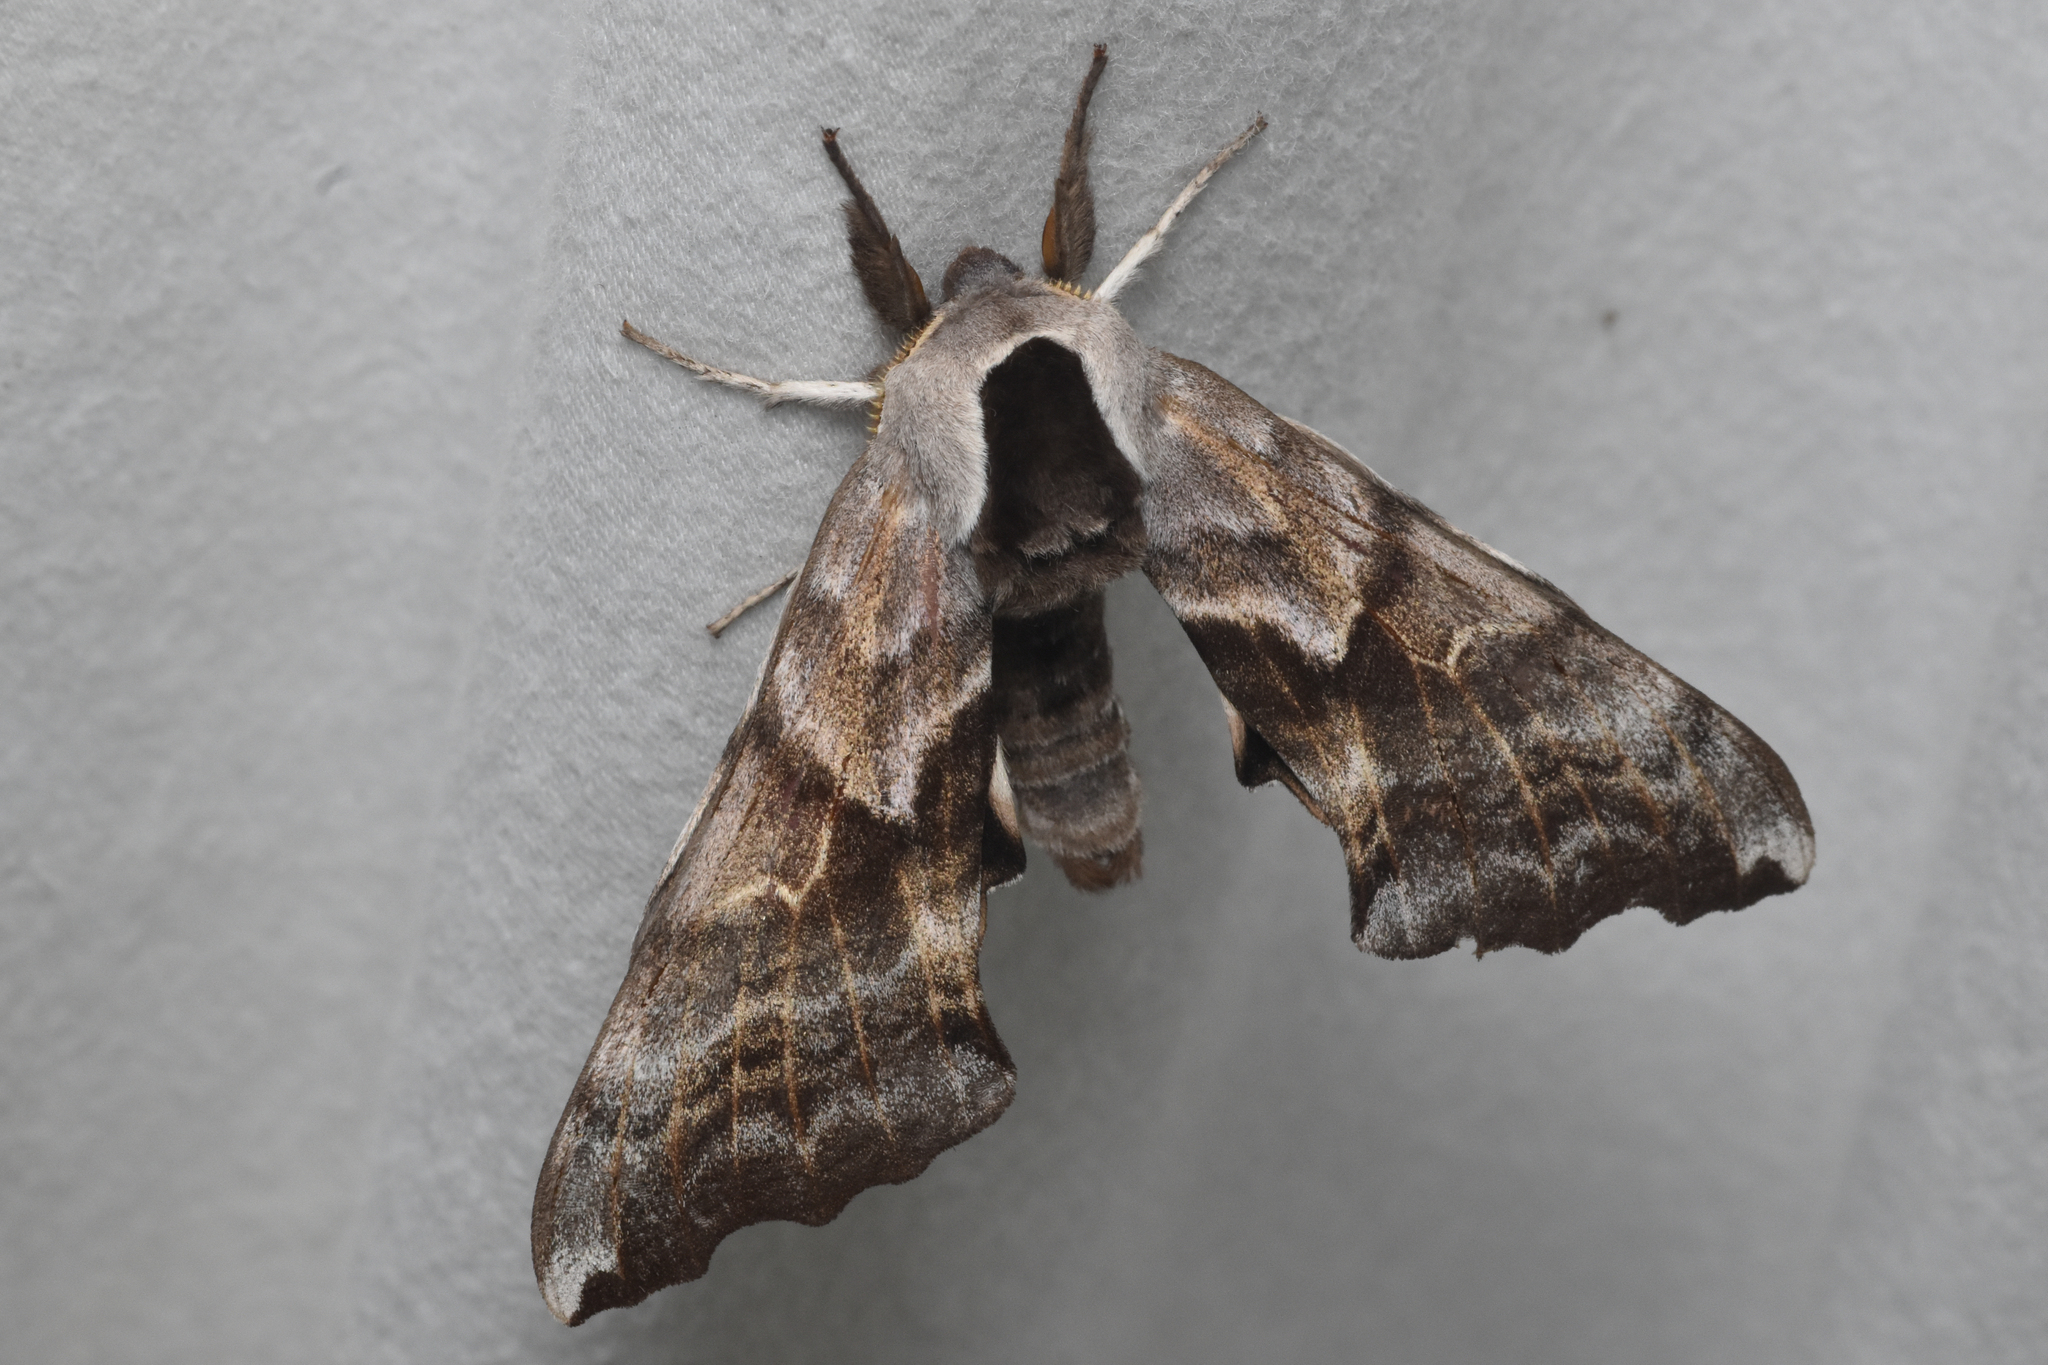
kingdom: Animalia
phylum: Arthropoda
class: Insecta
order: Lepidoptera
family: Sphingidae
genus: Smerinthus
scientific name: Smerinthus cerisyi
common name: Cerisy's sphinx moth
